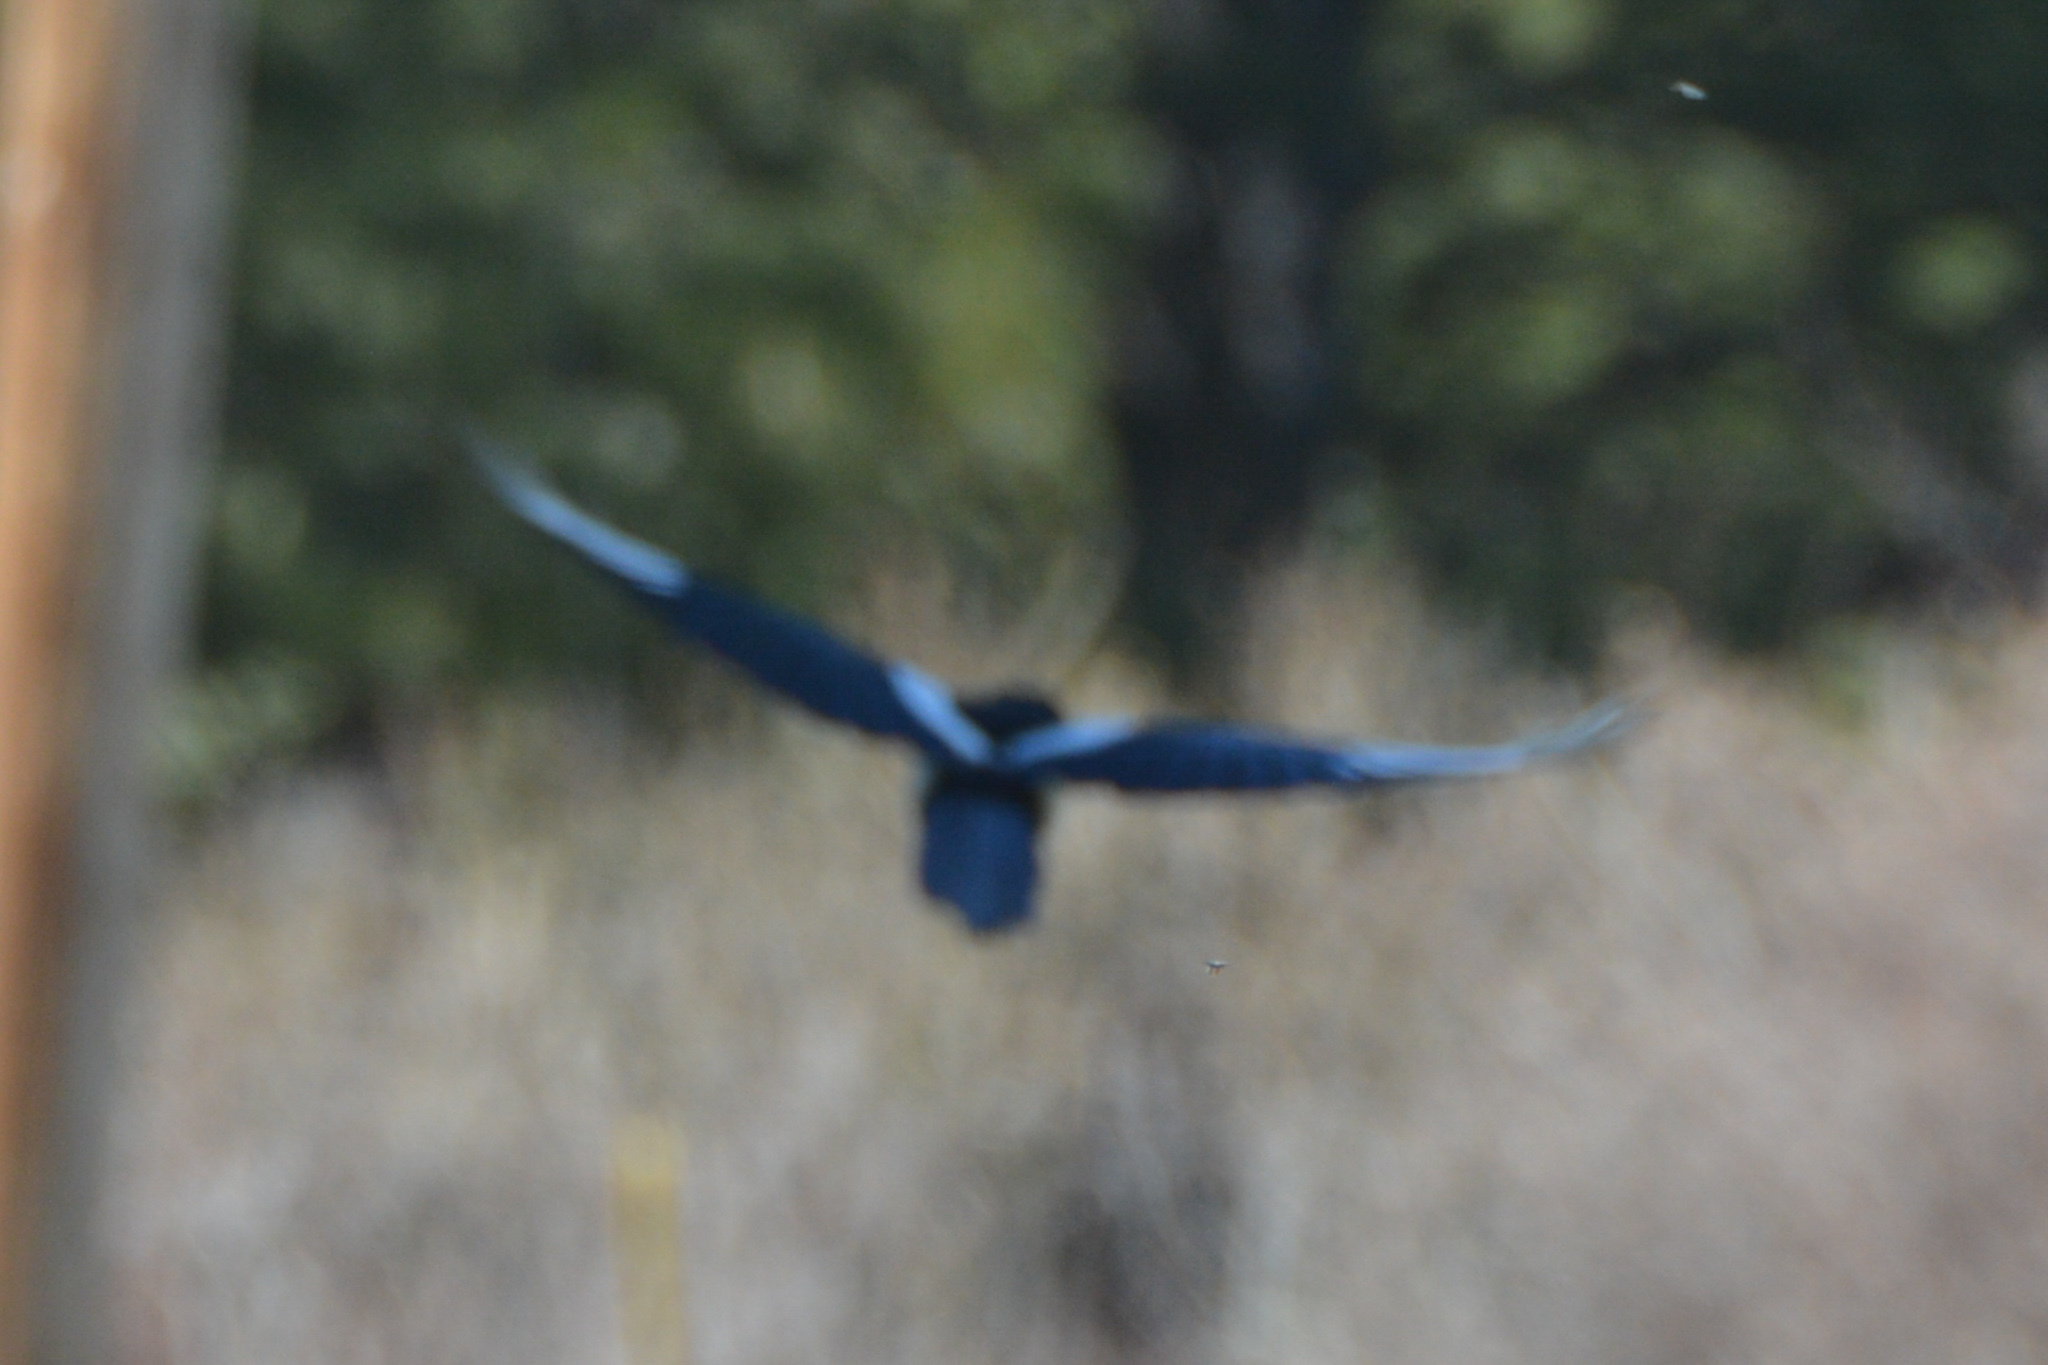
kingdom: Animalia
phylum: Chordata
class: Aves
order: Passeriformes
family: Corvidae
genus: Pica
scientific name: Pica hudsonia
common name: Black-billed magpie
